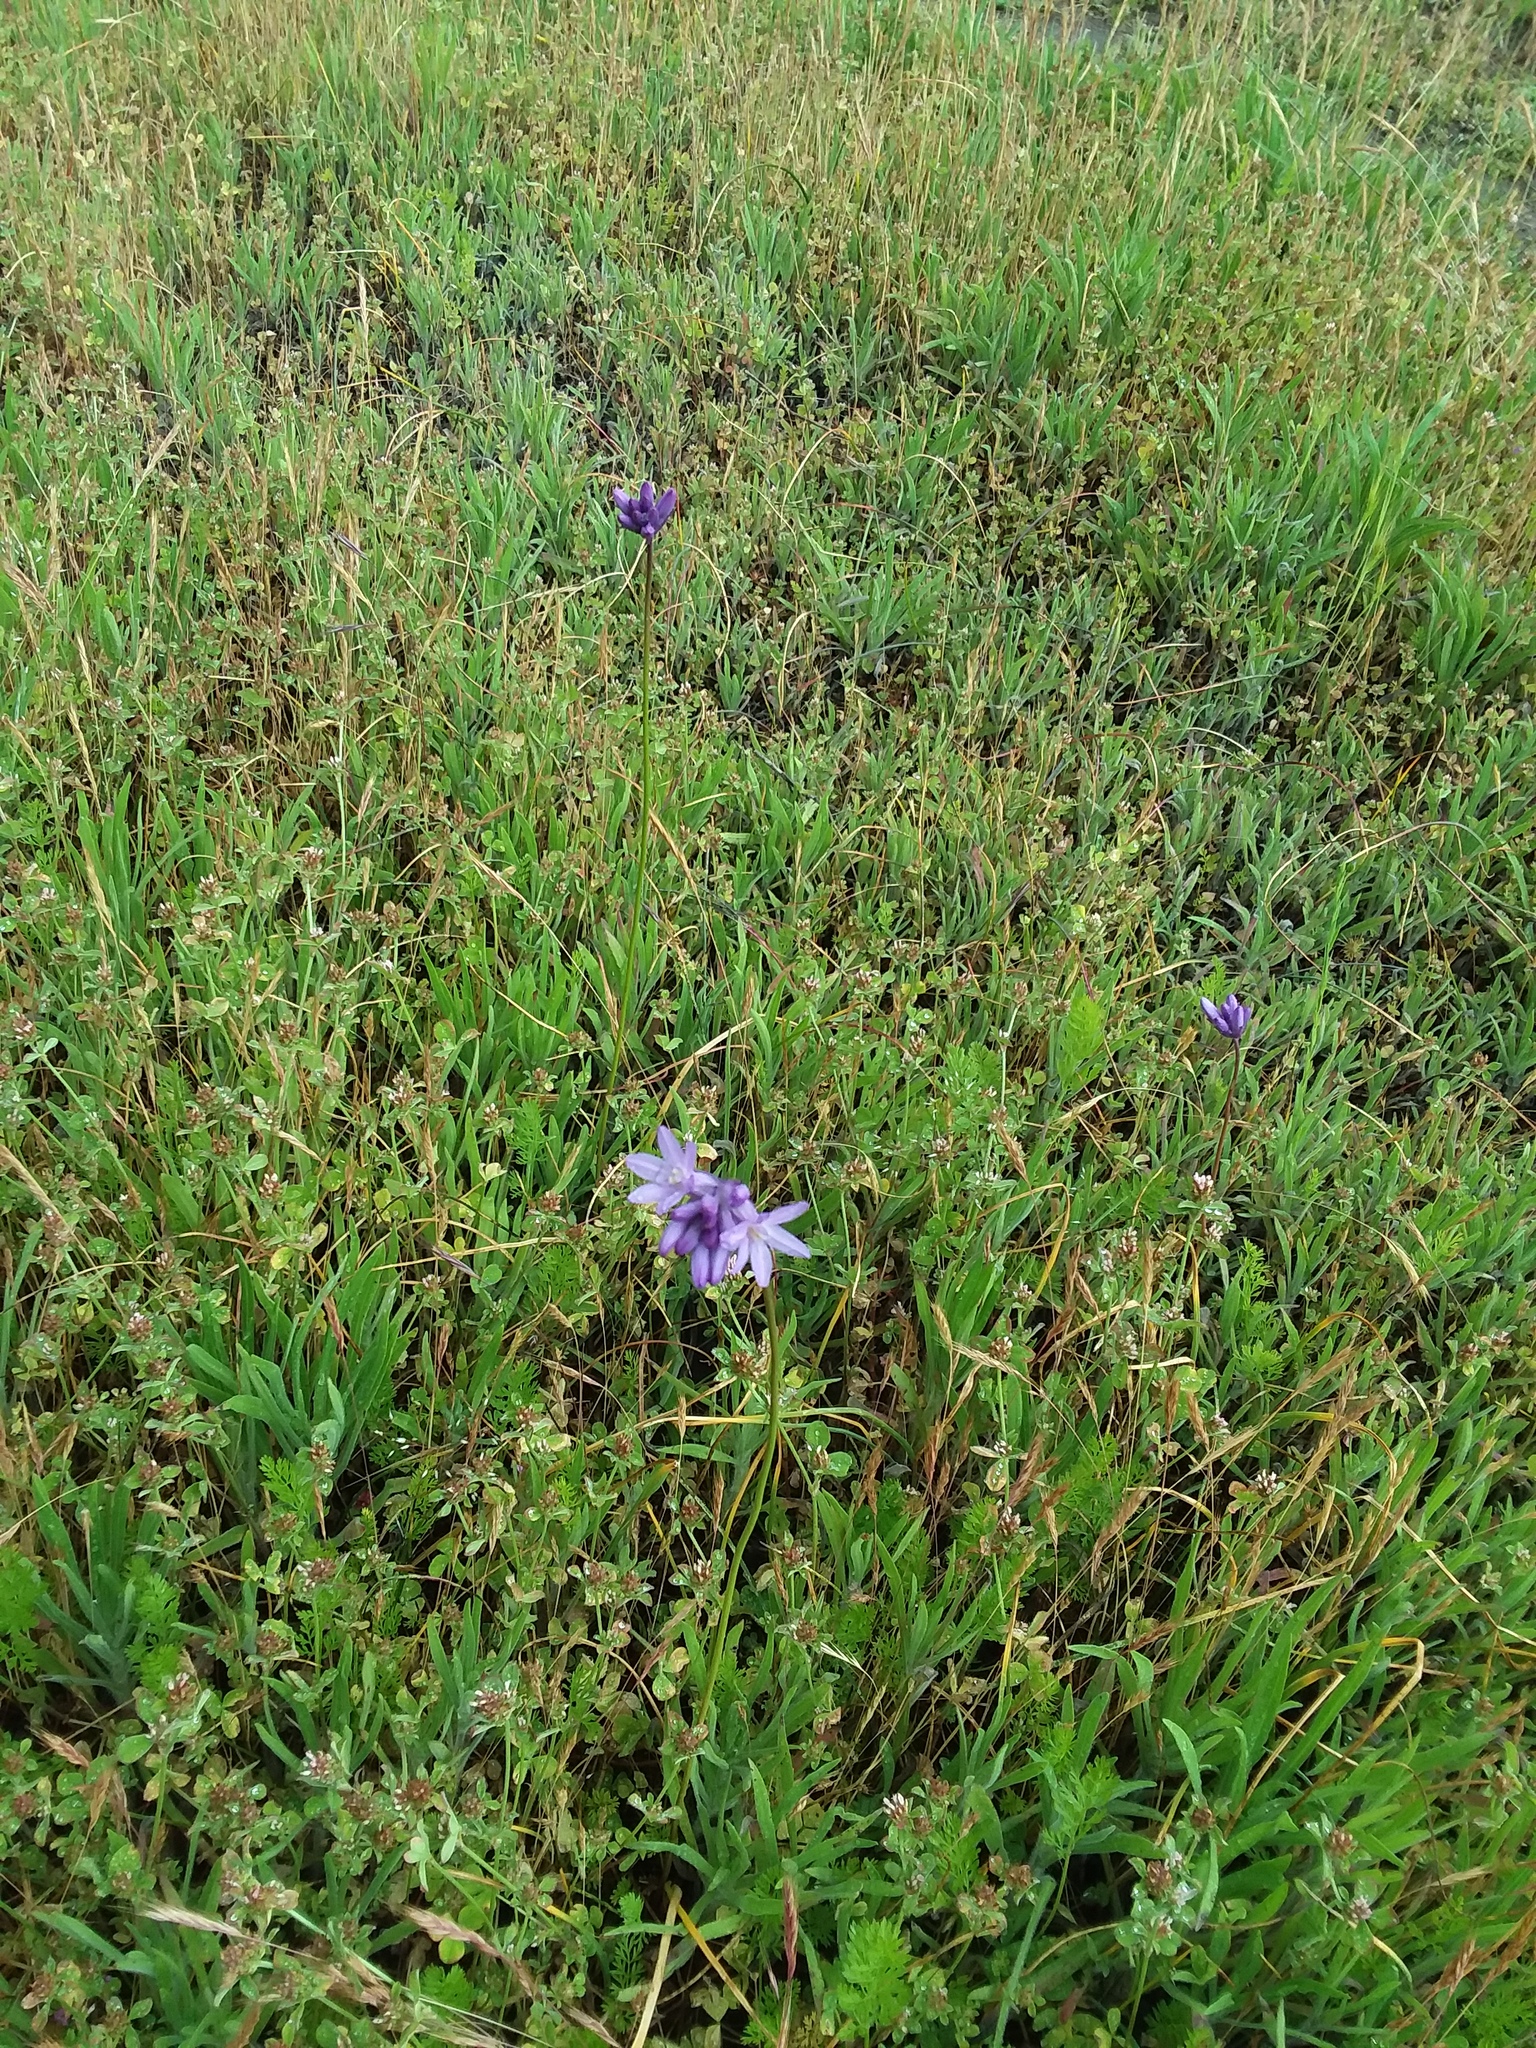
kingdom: Plantae
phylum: Tracheophyta
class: Liliopsida
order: Asparagales
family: Asparagaceae
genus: Dichelostemma
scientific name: Dichelostemma congestum
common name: Fork-tooth ookow
